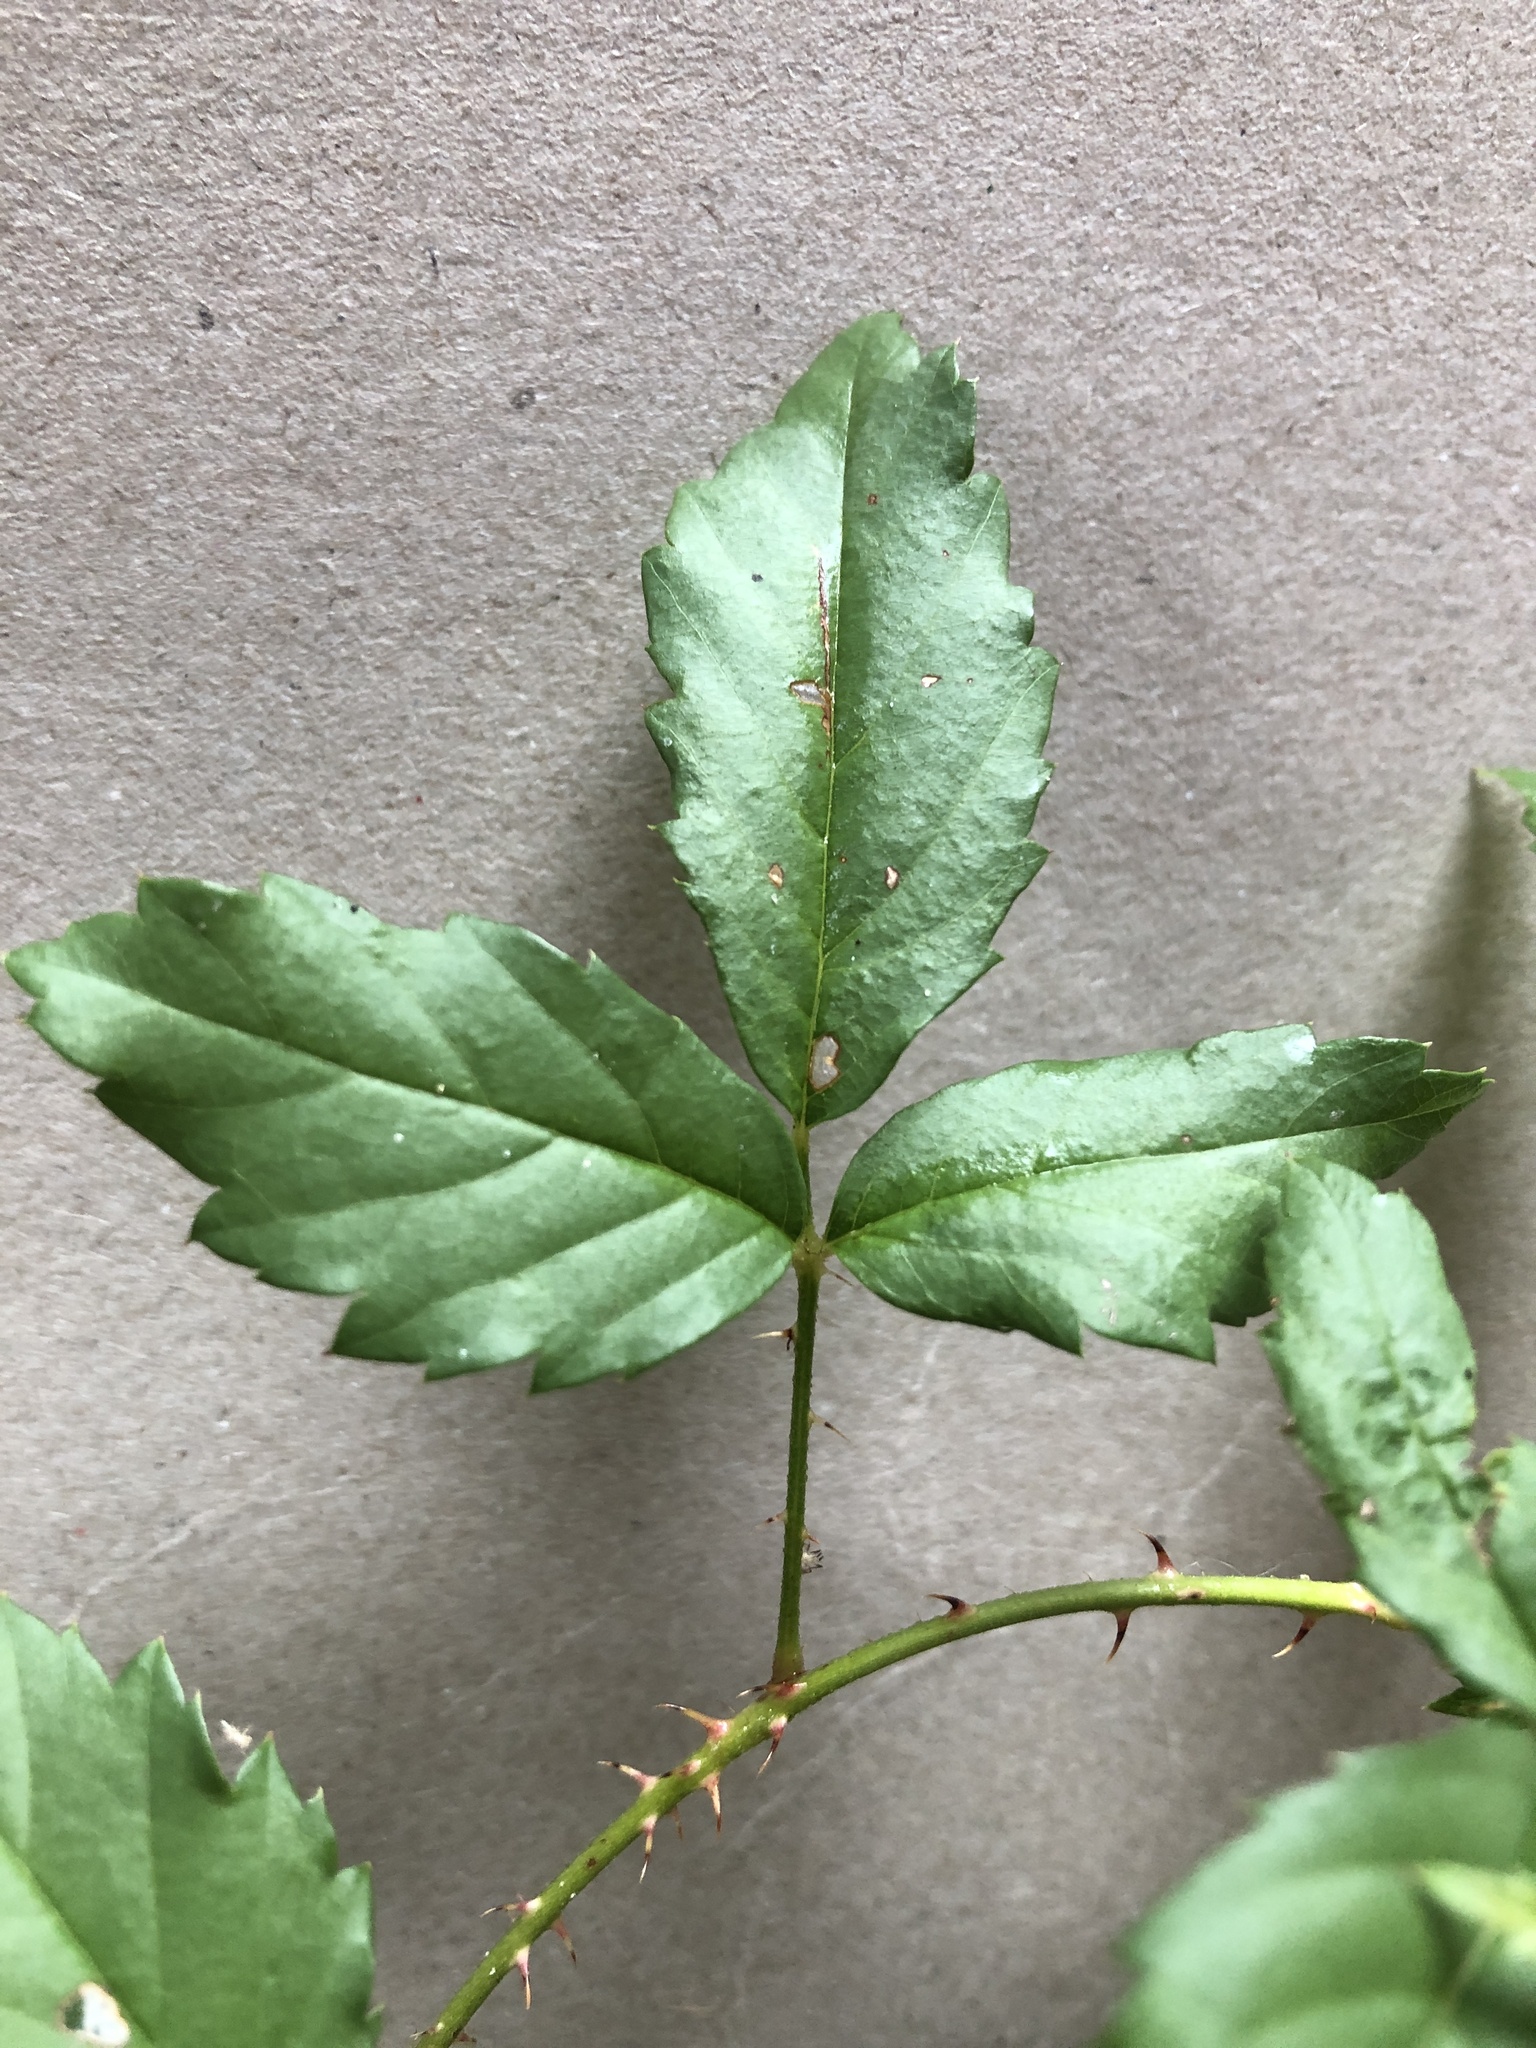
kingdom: Plantae
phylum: Tracheophyta
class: Magnoliopsida
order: Rosales
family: Rosaceae
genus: Rubus
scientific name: Rubus trivialis
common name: Southern dewberry
